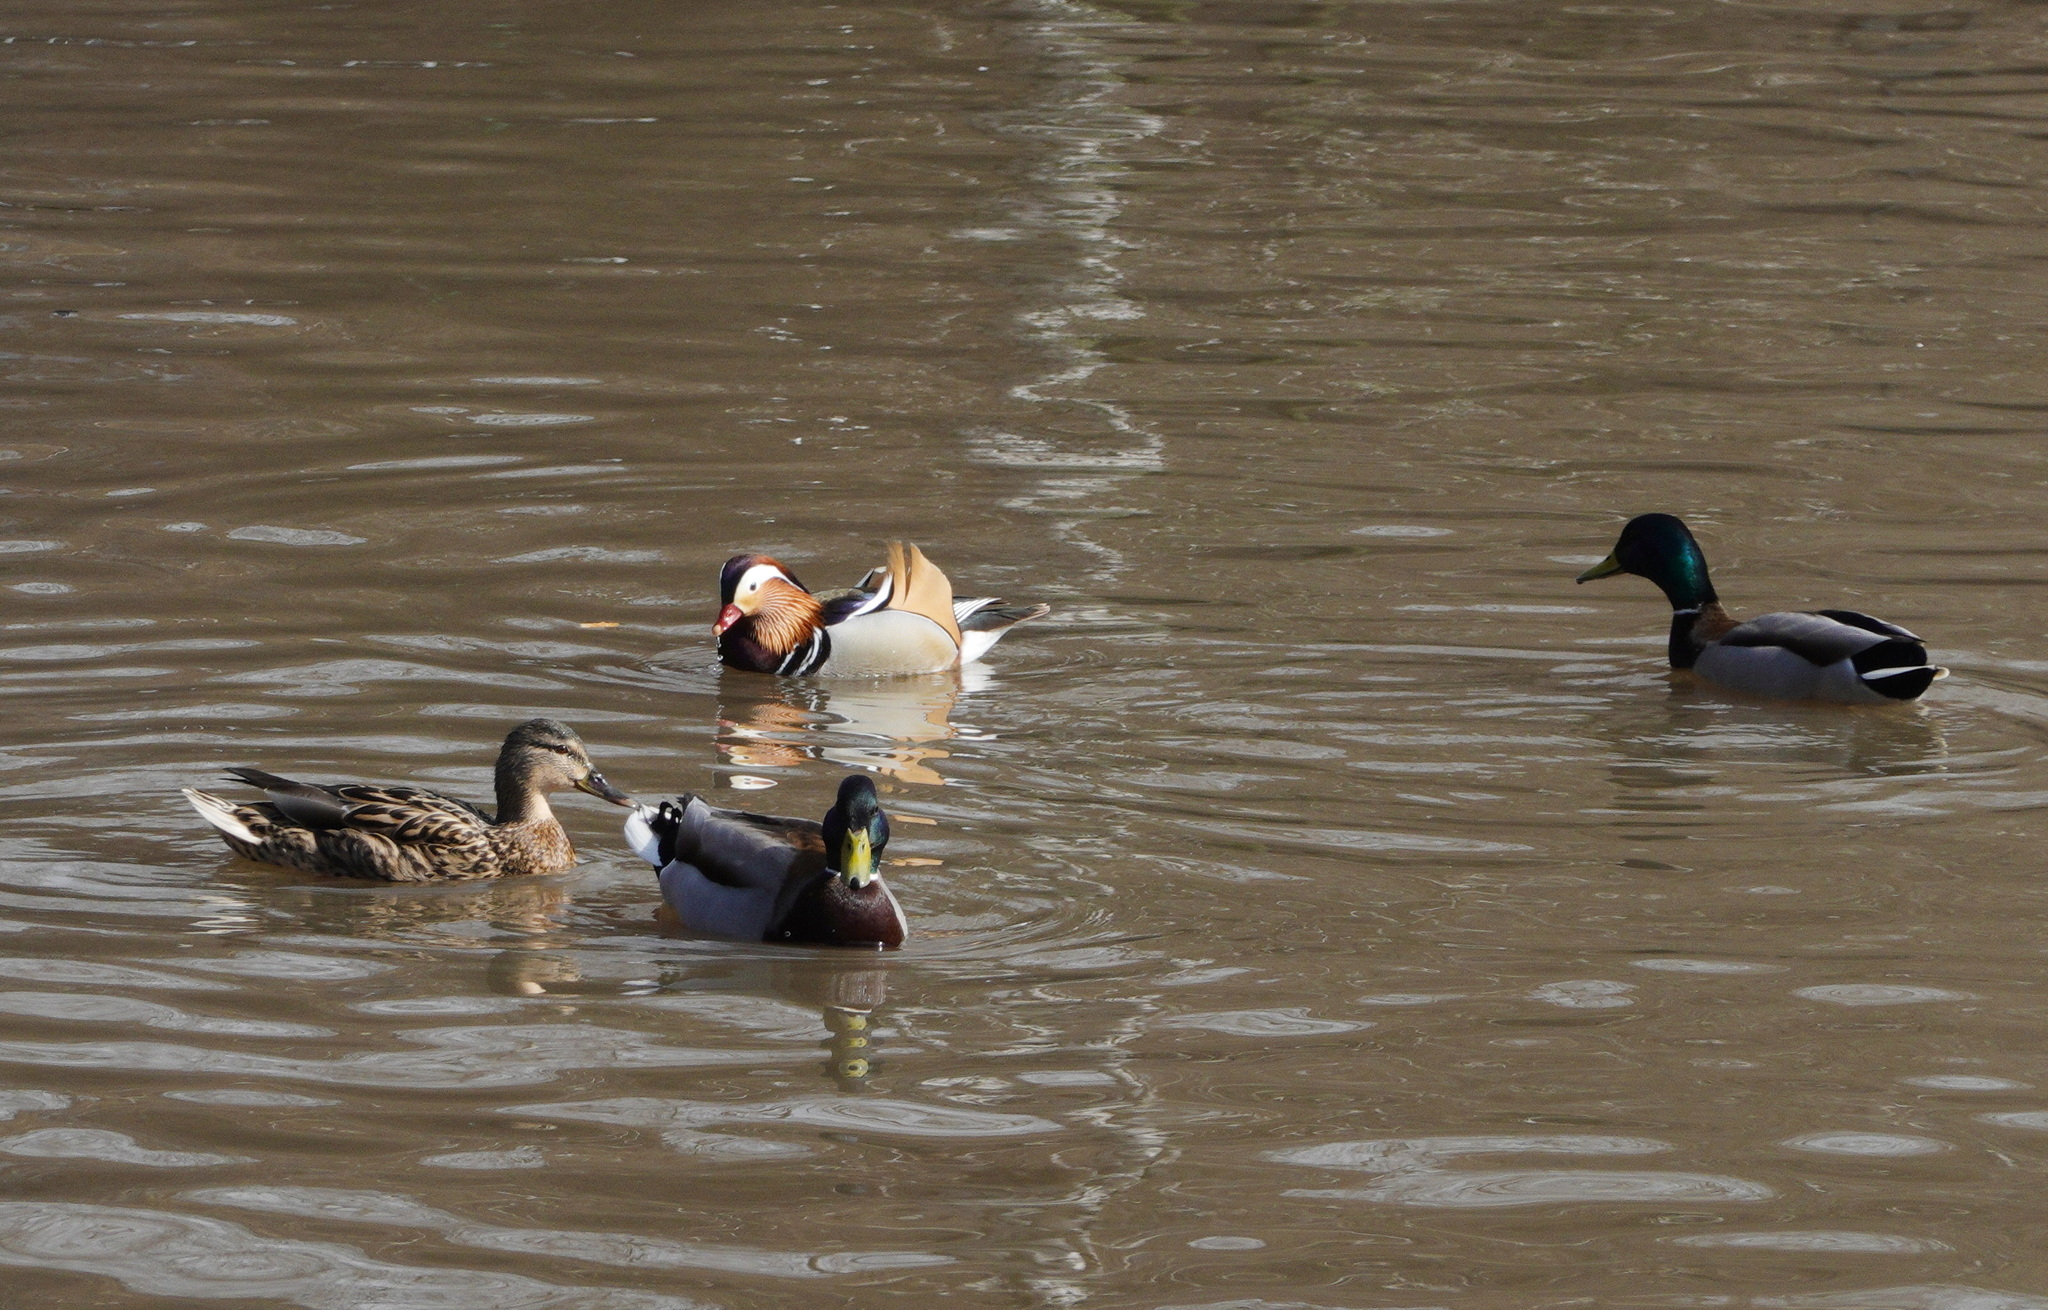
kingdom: Animalia
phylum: Chordata
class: Aves
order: Anseriformes
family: Anatidae
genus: Aix
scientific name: Aix galericulata
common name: Mandarin duck
